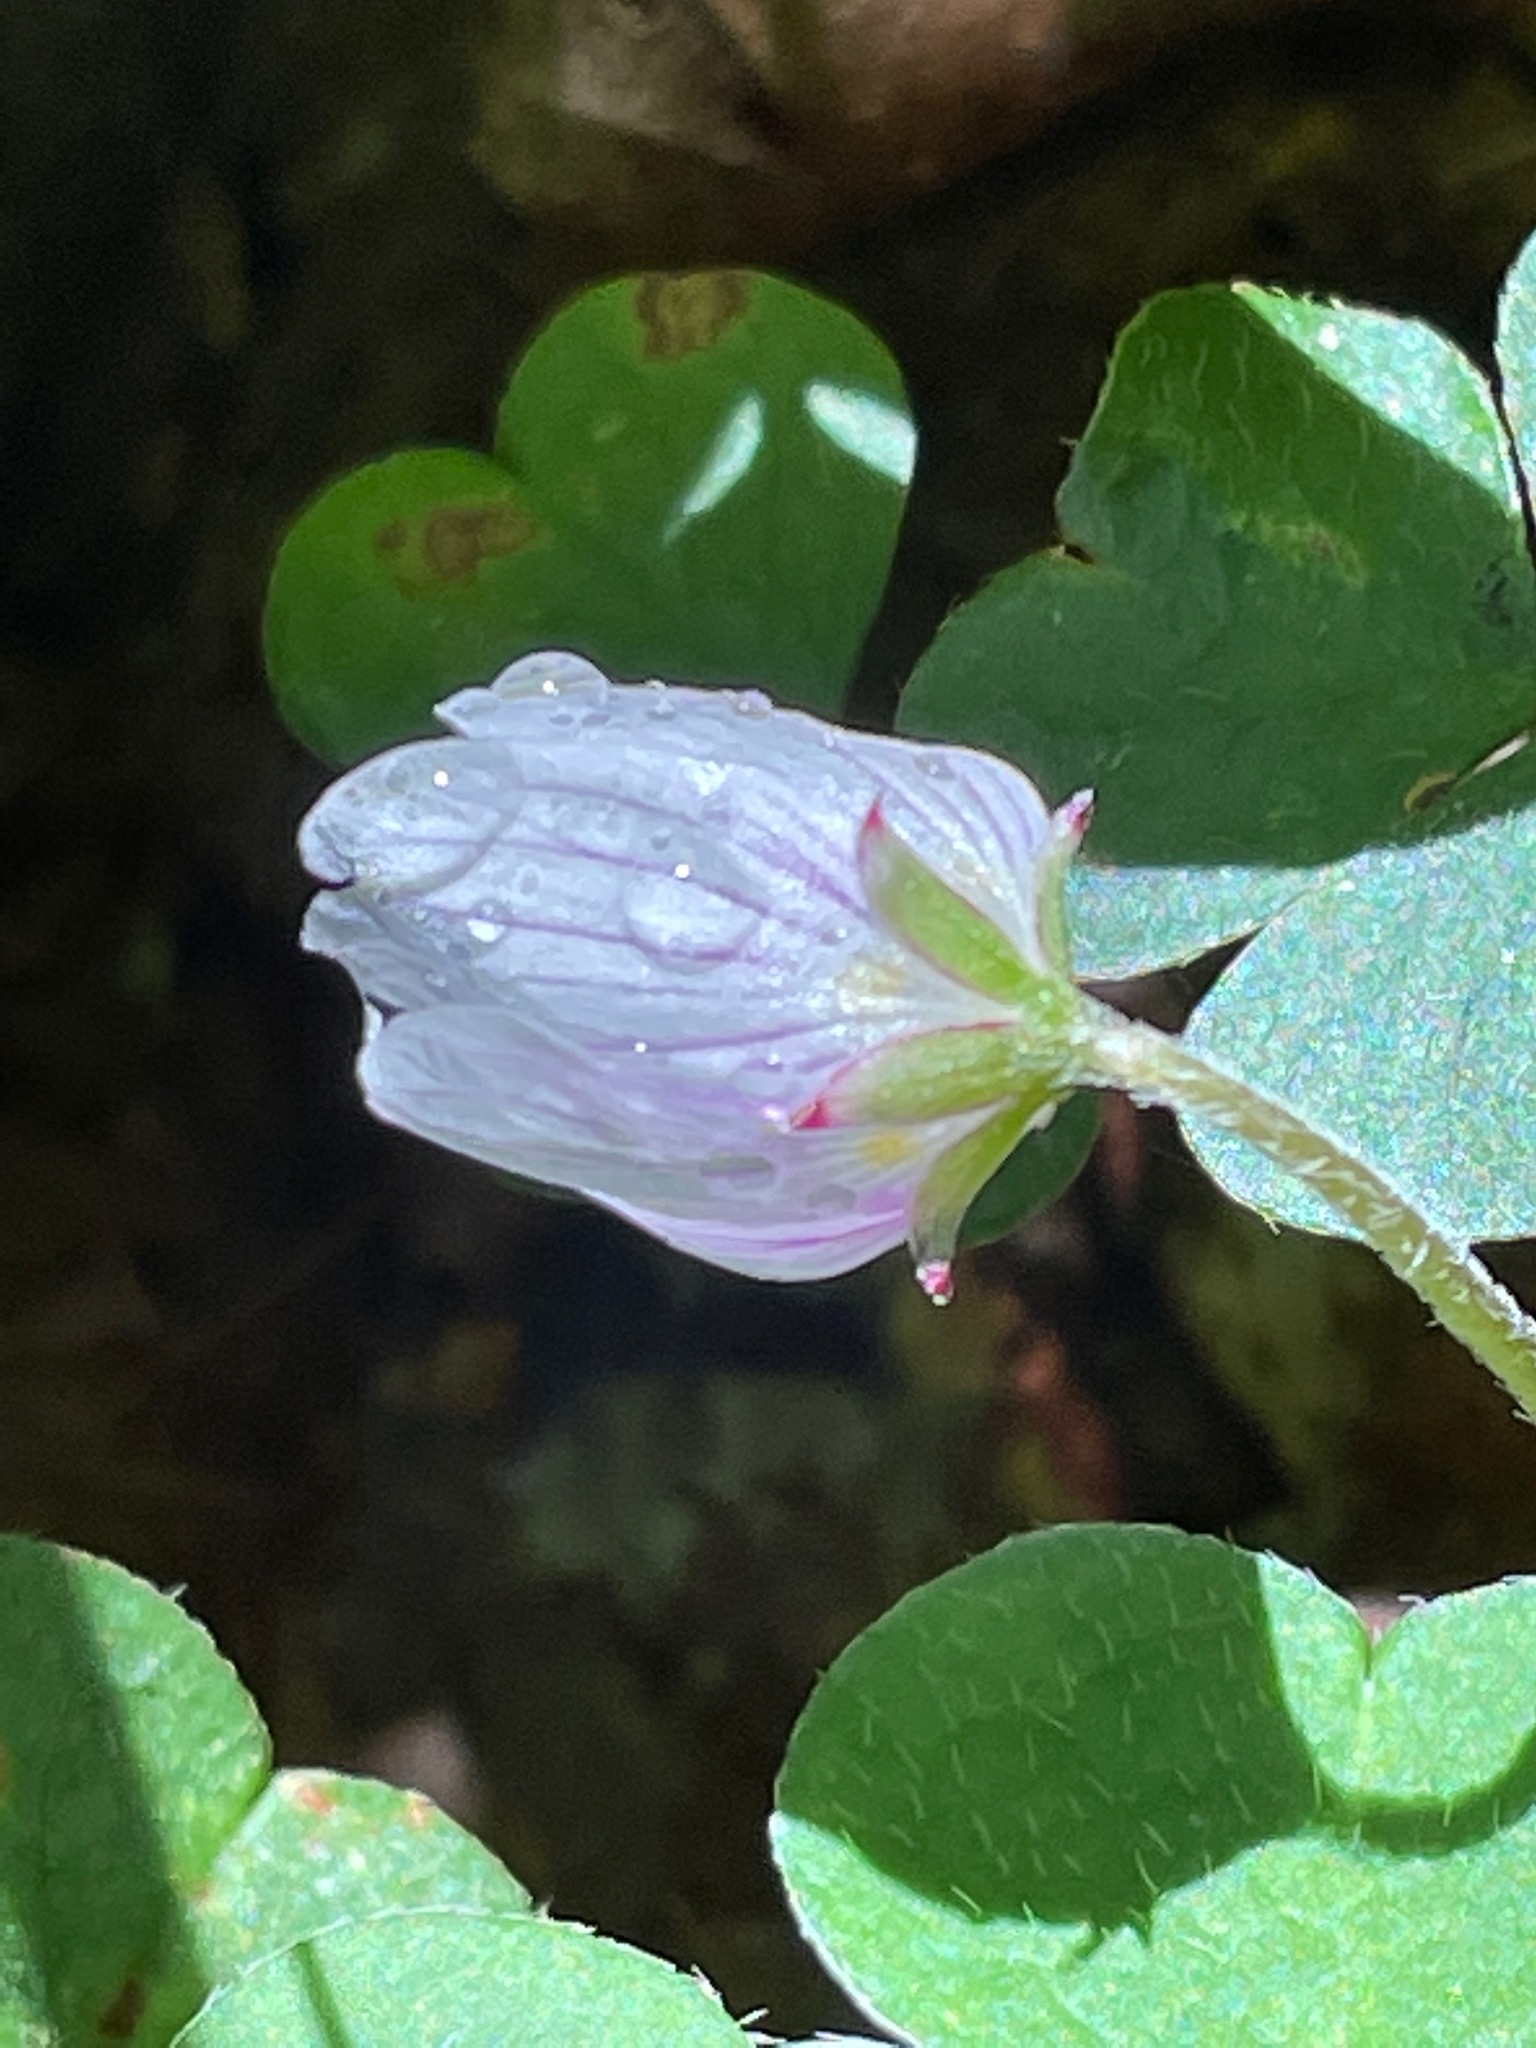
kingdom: Plantae
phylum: Tracheophyta
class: Magnoliopsida
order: Oxalidales
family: Oxalidaceae
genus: Oxalis
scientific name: Oxalis montana
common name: American wood-sorrel
